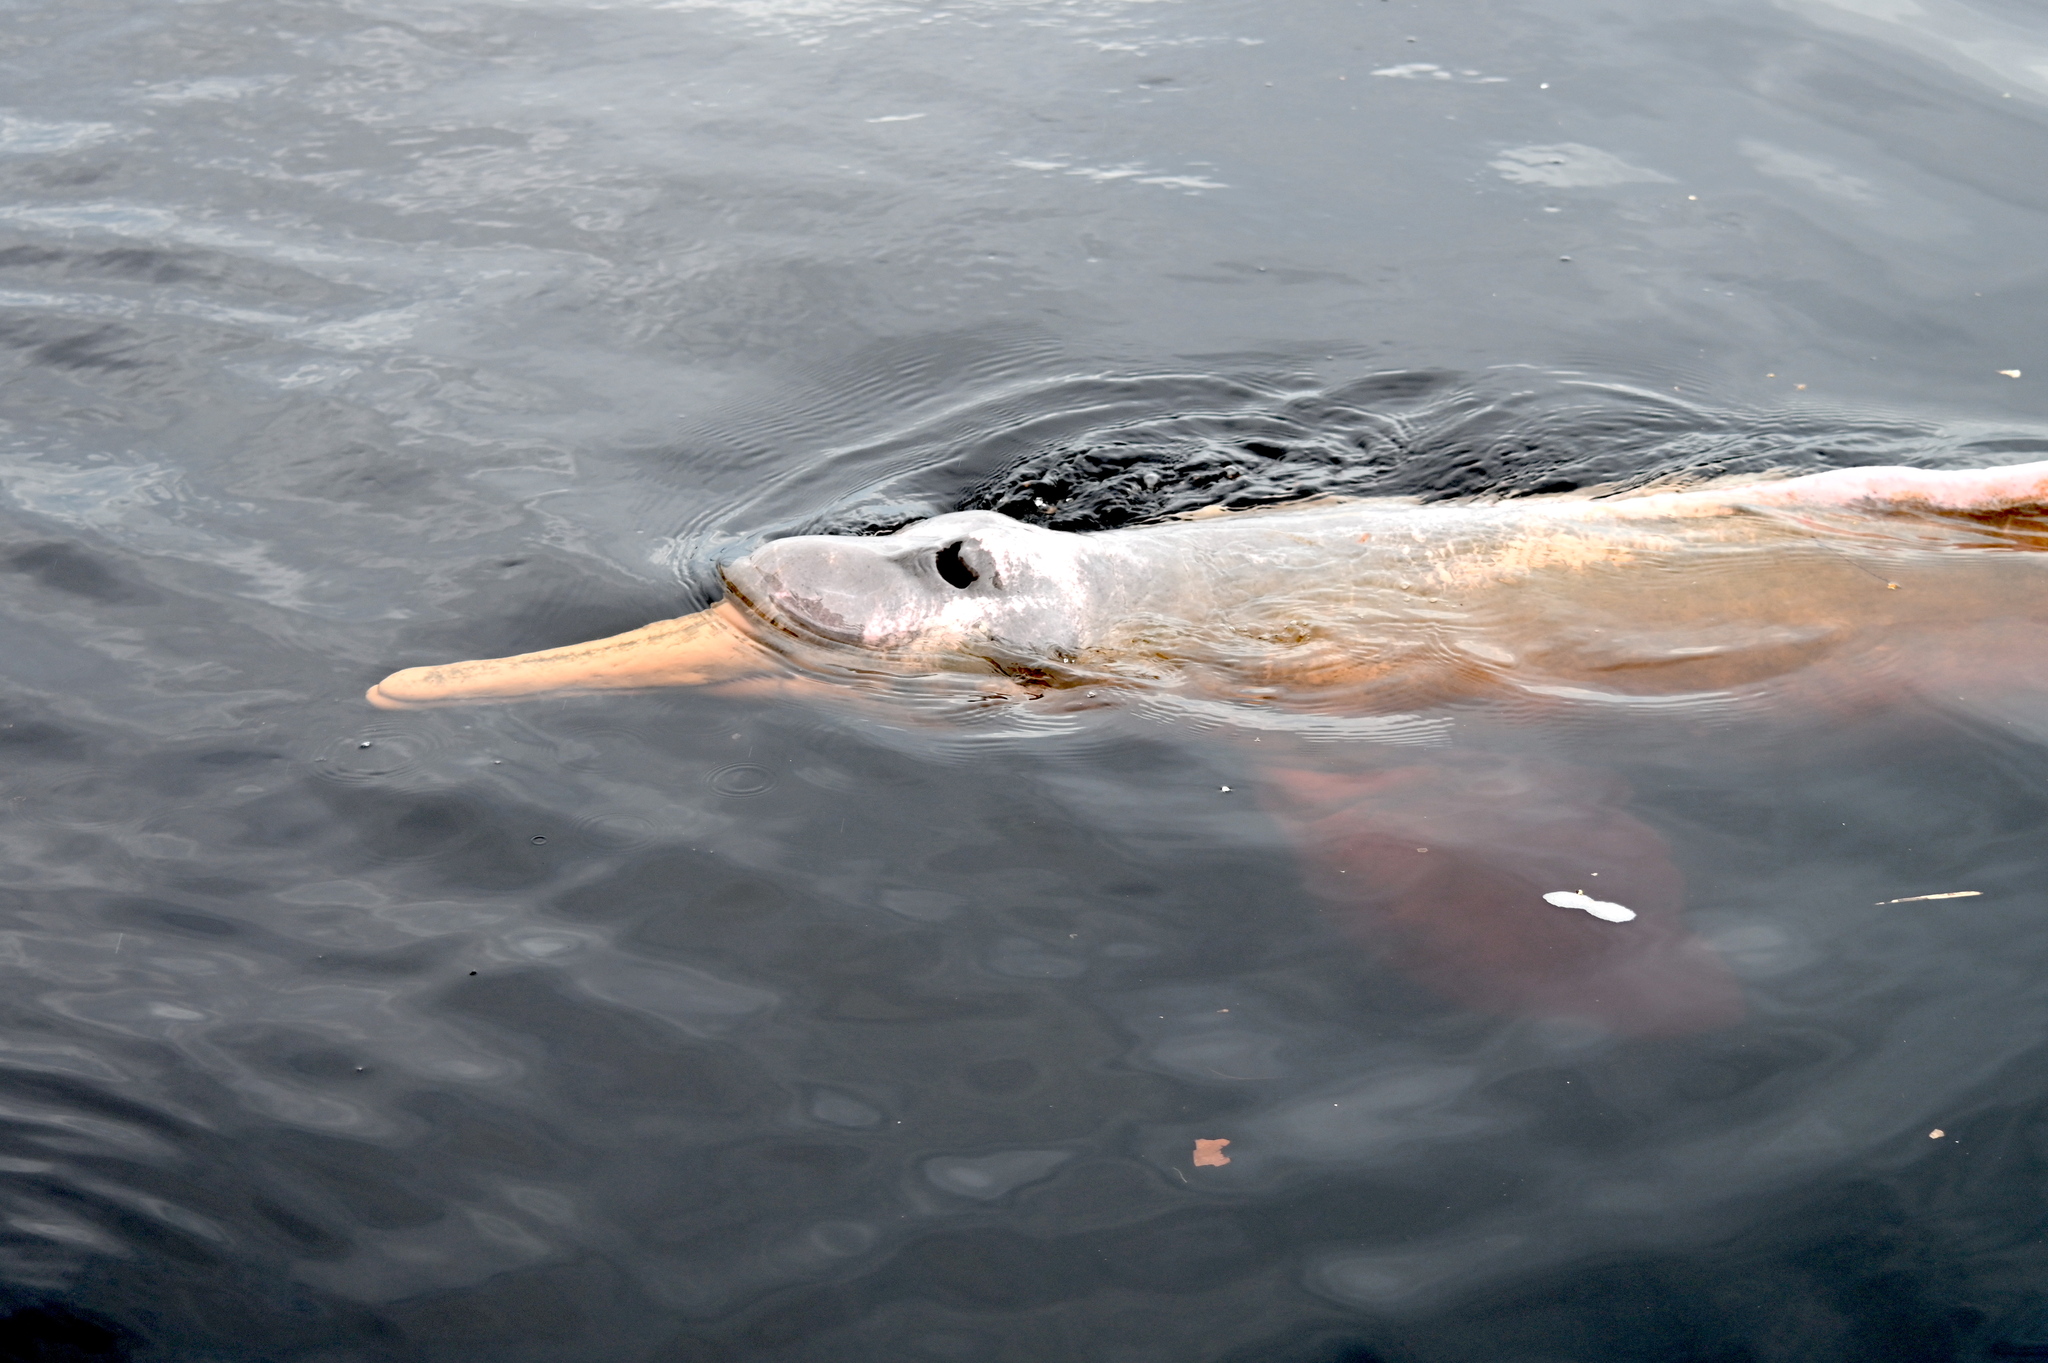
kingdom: Animalia
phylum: Chordata
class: Mammalia
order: Cetacea
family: Iniidae
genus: Inia
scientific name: Inia geoffrensis
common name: Amazon river dolphin
